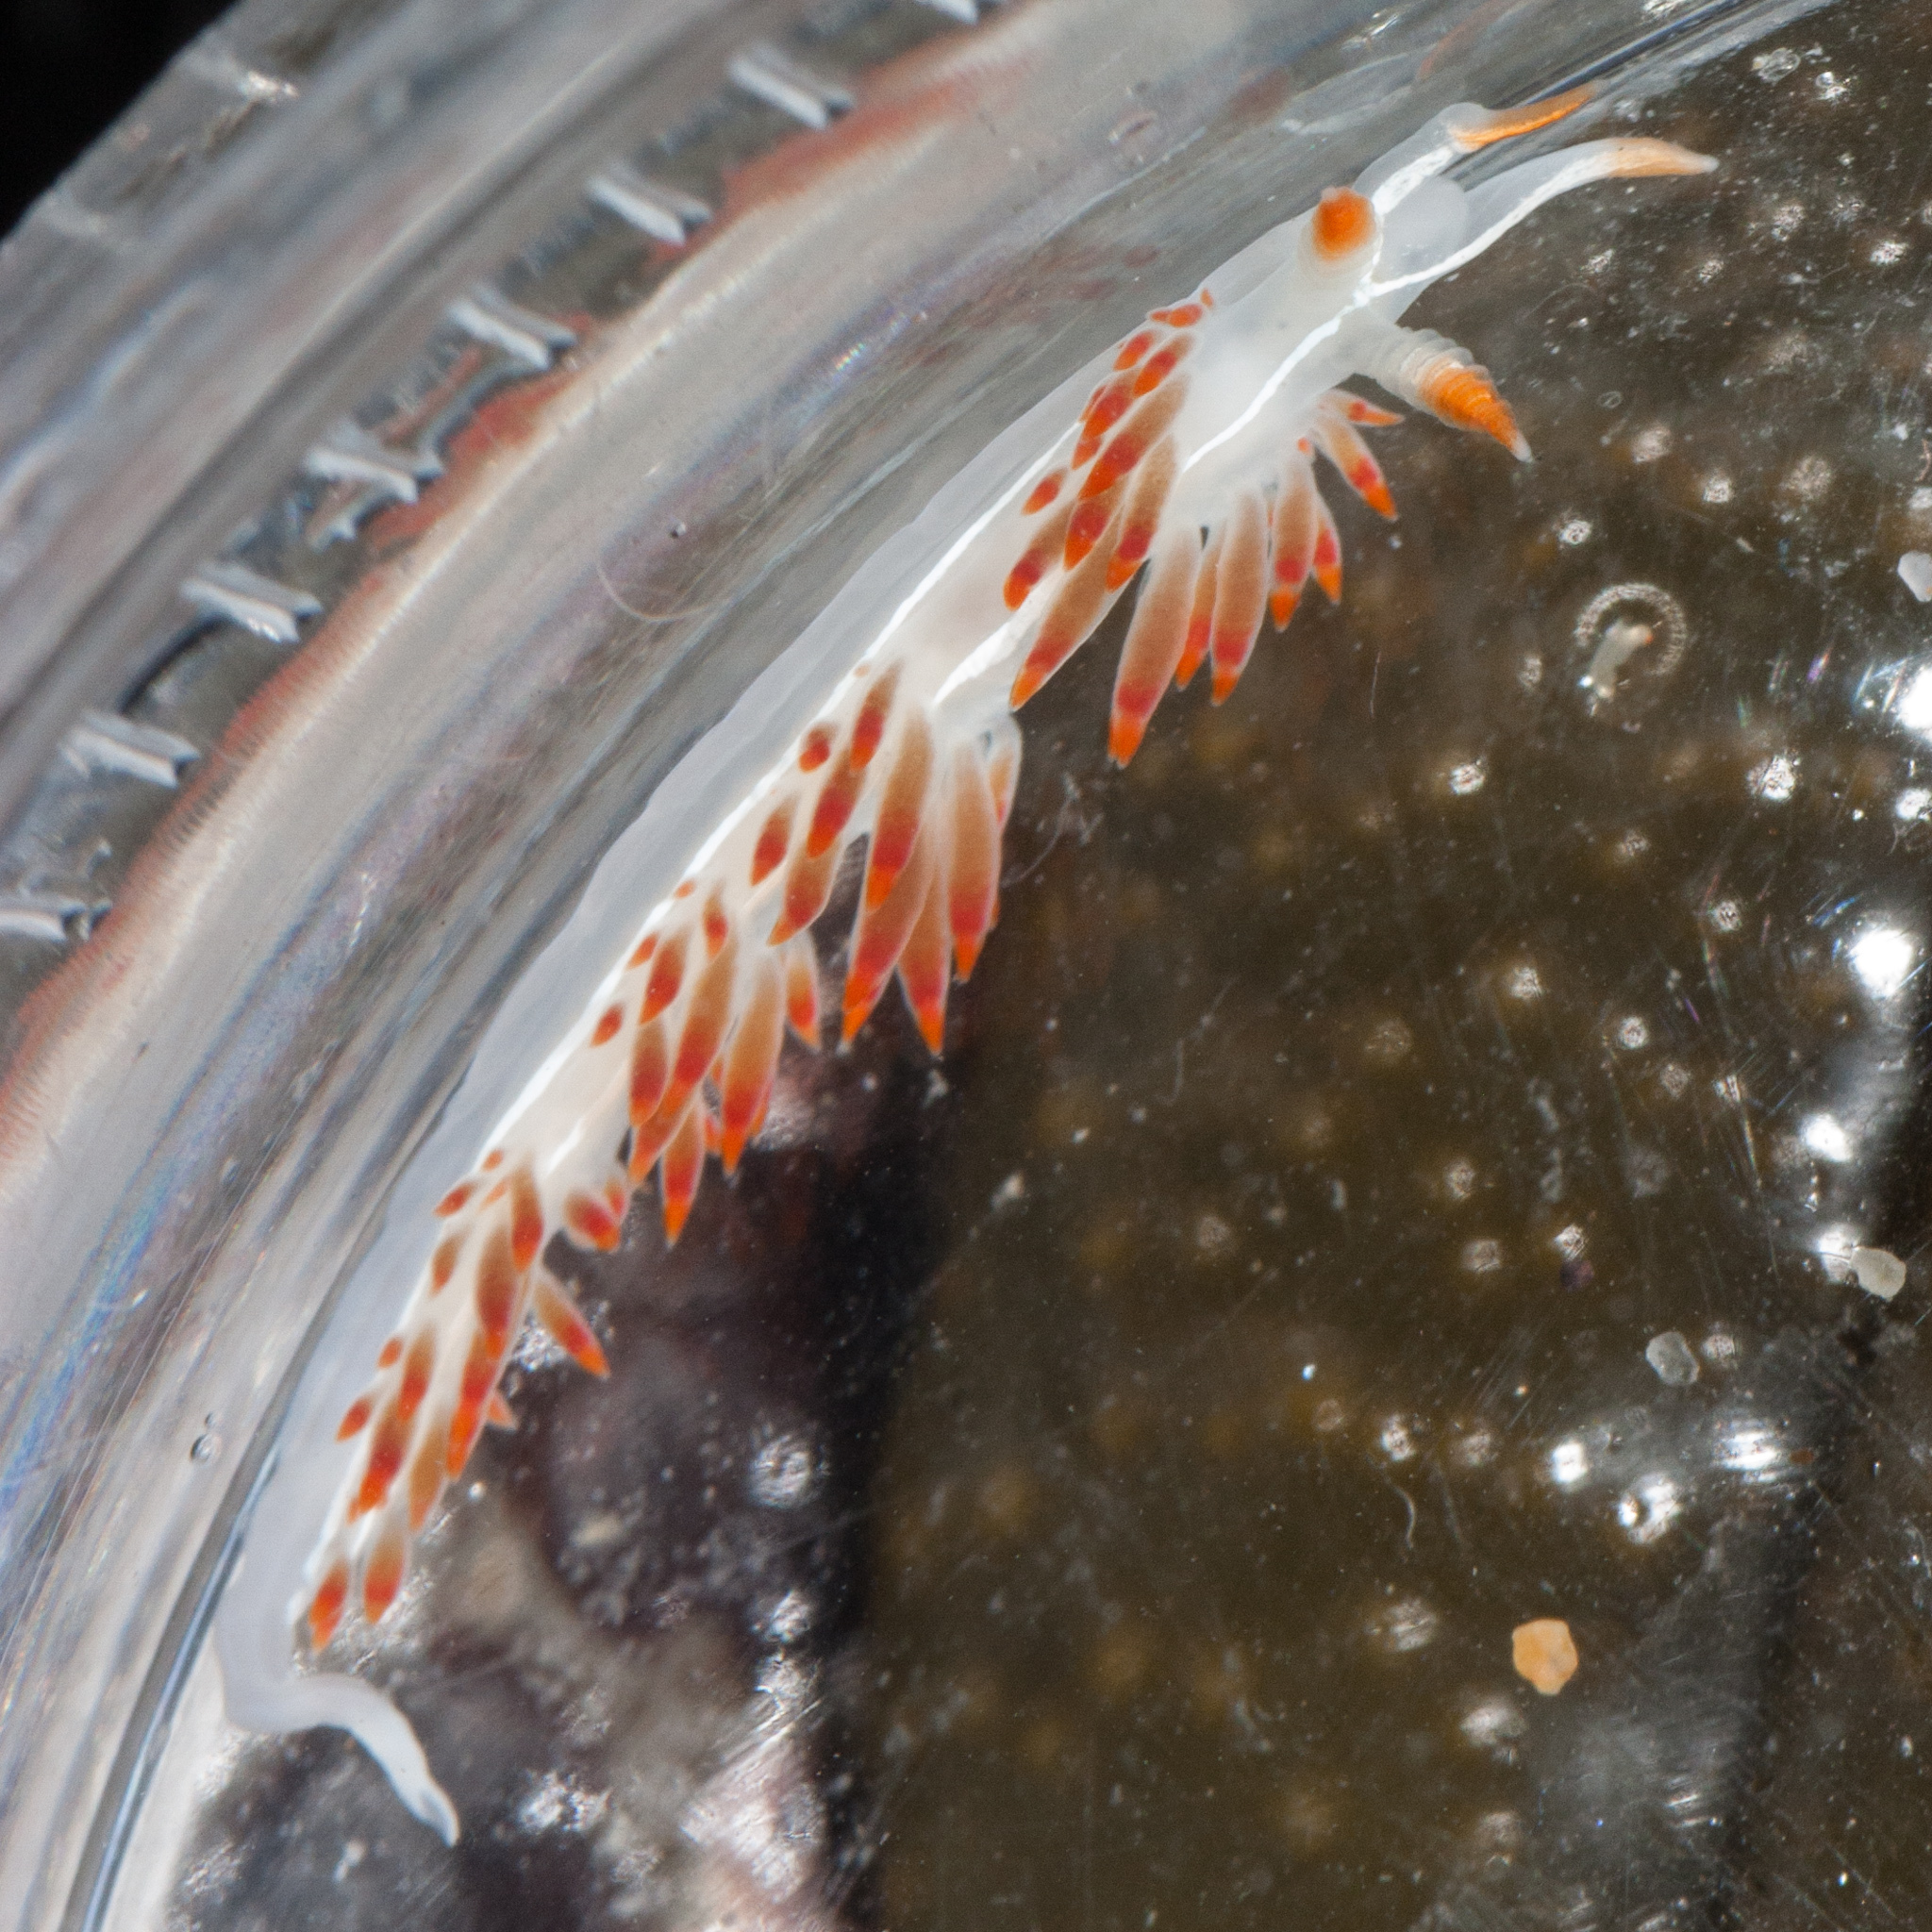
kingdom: Animalia
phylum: Mollusca
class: Gastropoda
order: Nudibranchia
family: Coryphellidae
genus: Coryphella
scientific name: Coryphella trilineata
